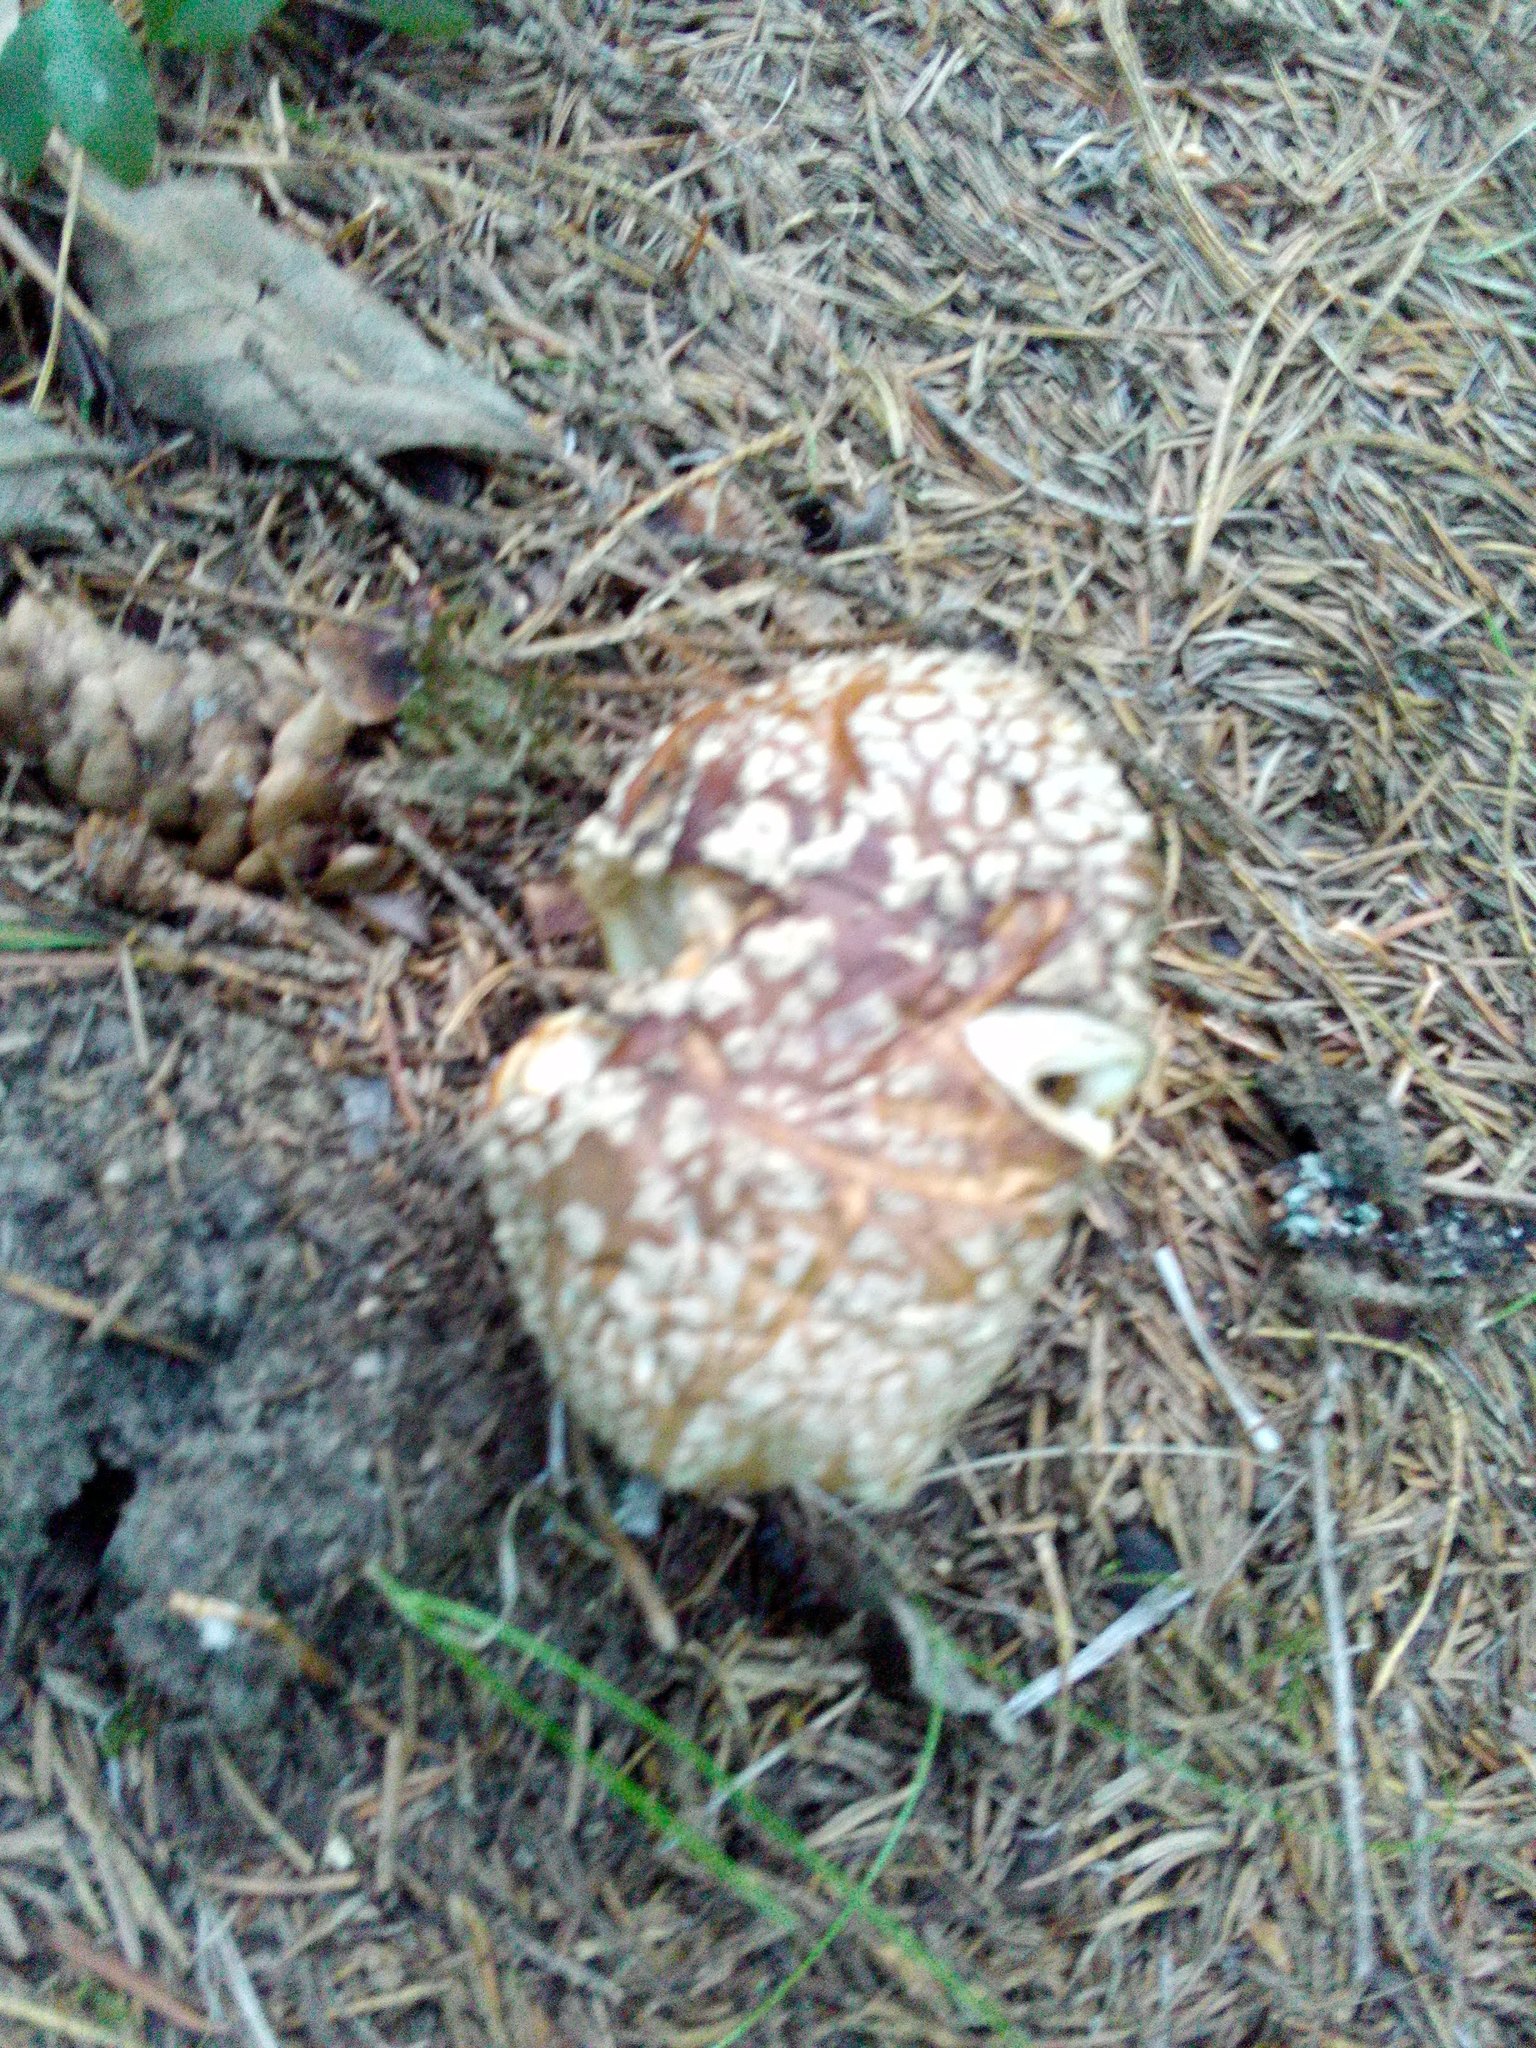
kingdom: Fungi
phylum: Basidiomycota
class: Agaricomycetes
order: Agaricales
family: Amanitaceae
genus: Amanita
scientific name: Amanita regalis
